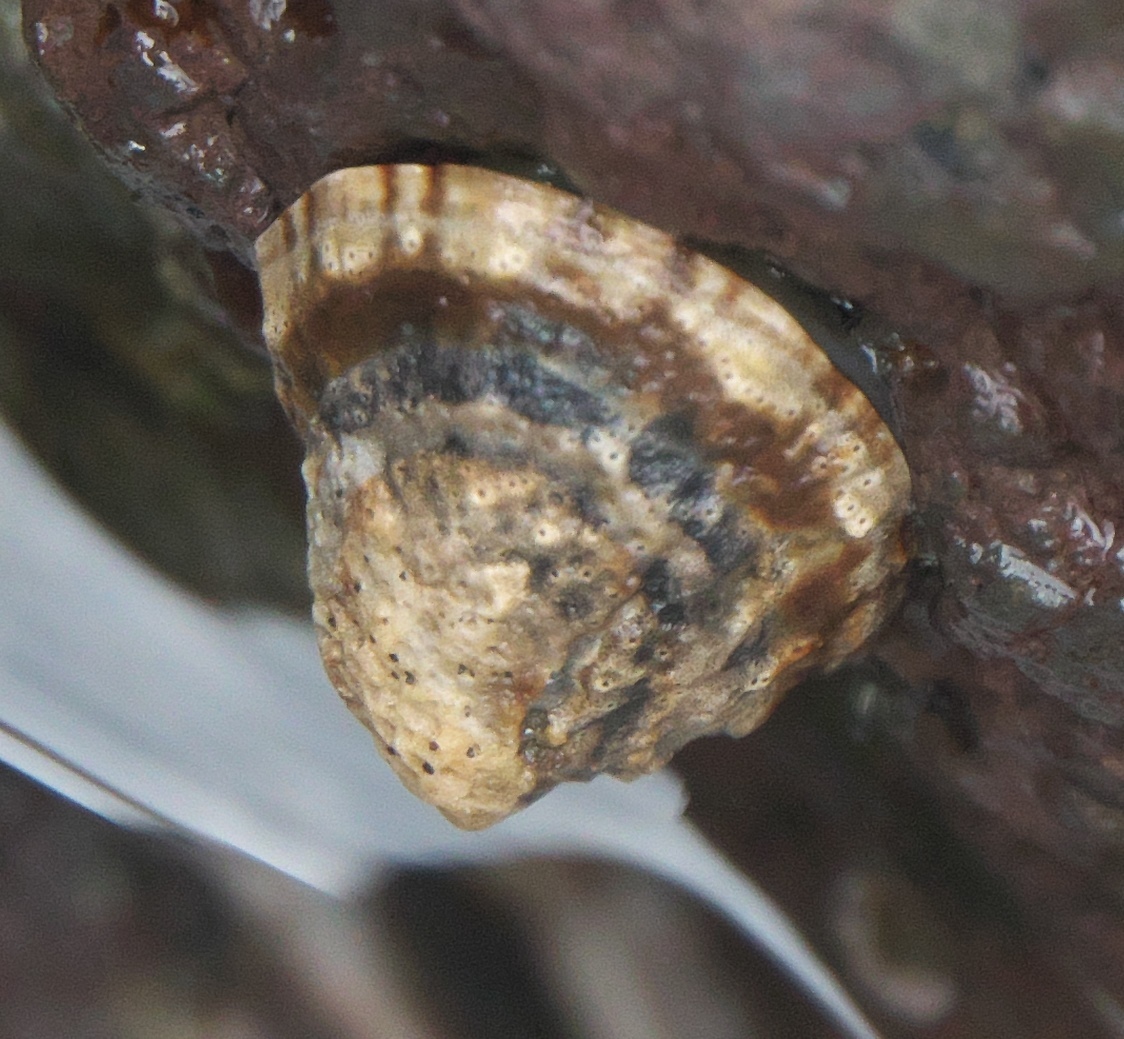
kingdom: Animalia
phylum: Mollusca
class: Gastropoda
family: Nacellidae
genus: Cellana
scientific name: Cellana ornata
